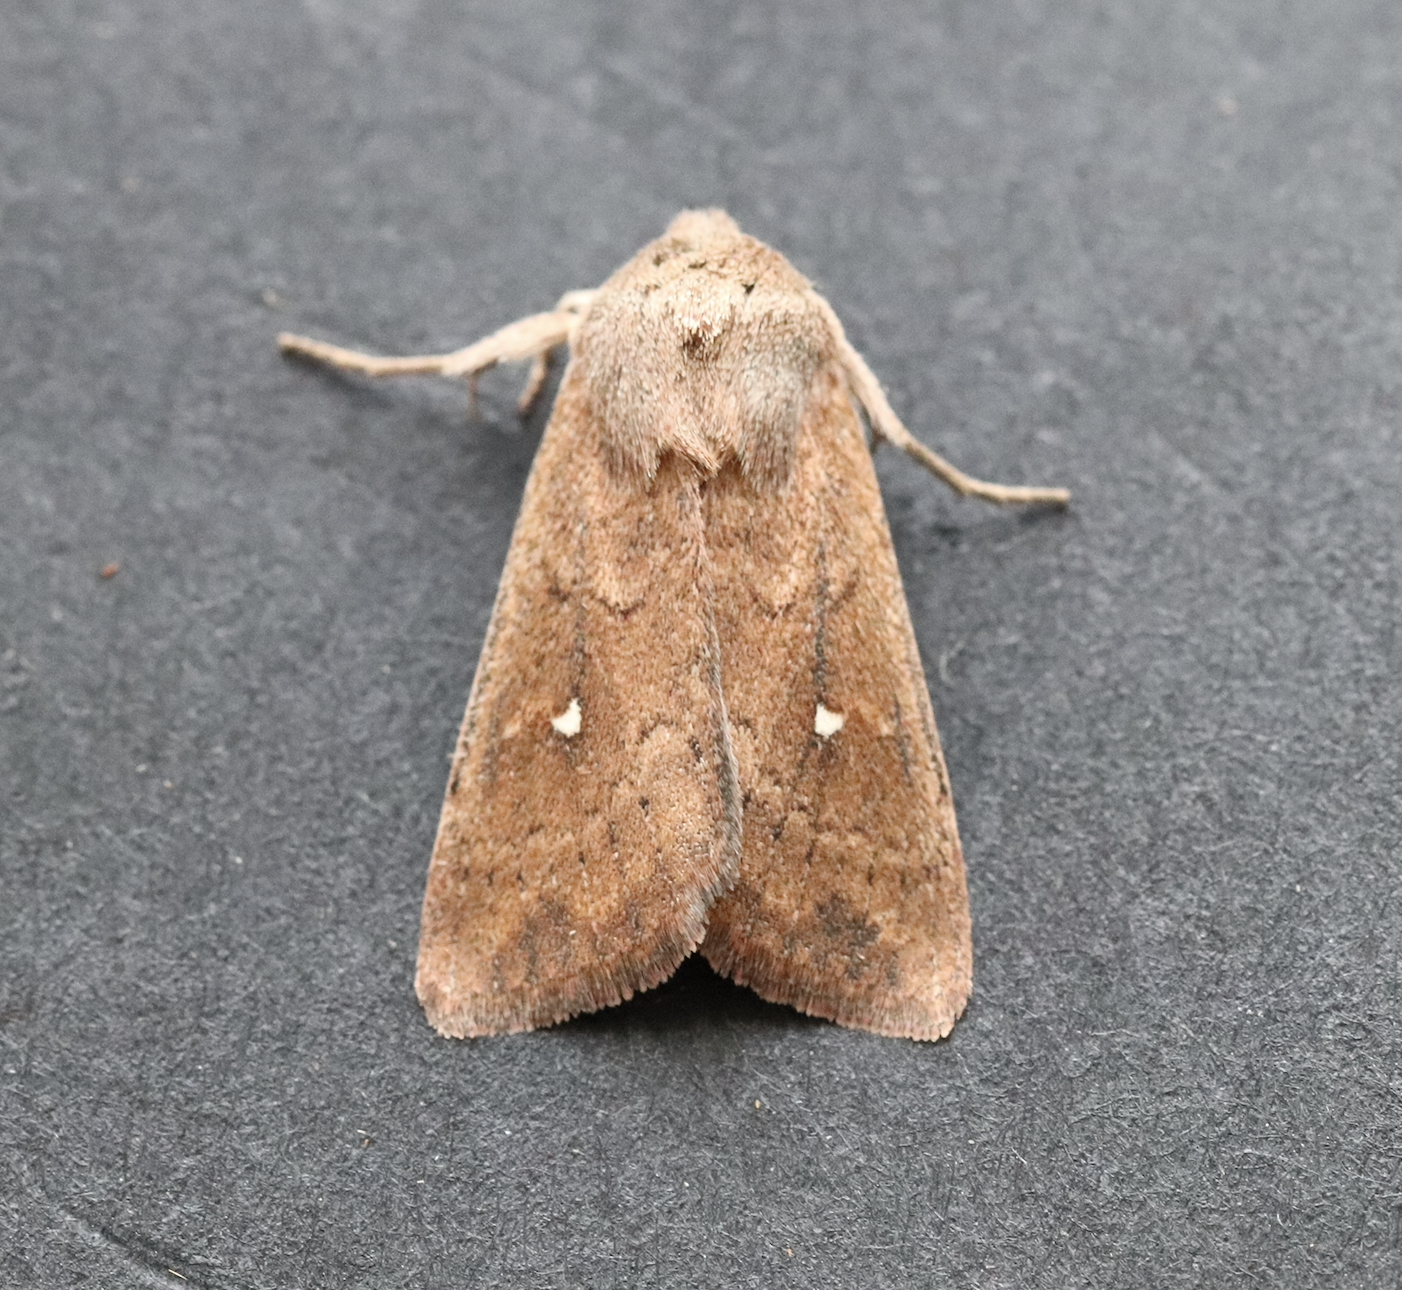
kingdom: Animalia
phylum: Arthropoda
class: Insecta
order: Lepidoptera
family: Noctuidae
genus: Mythimna
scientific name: Mythimna albipuncta
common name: White-point
